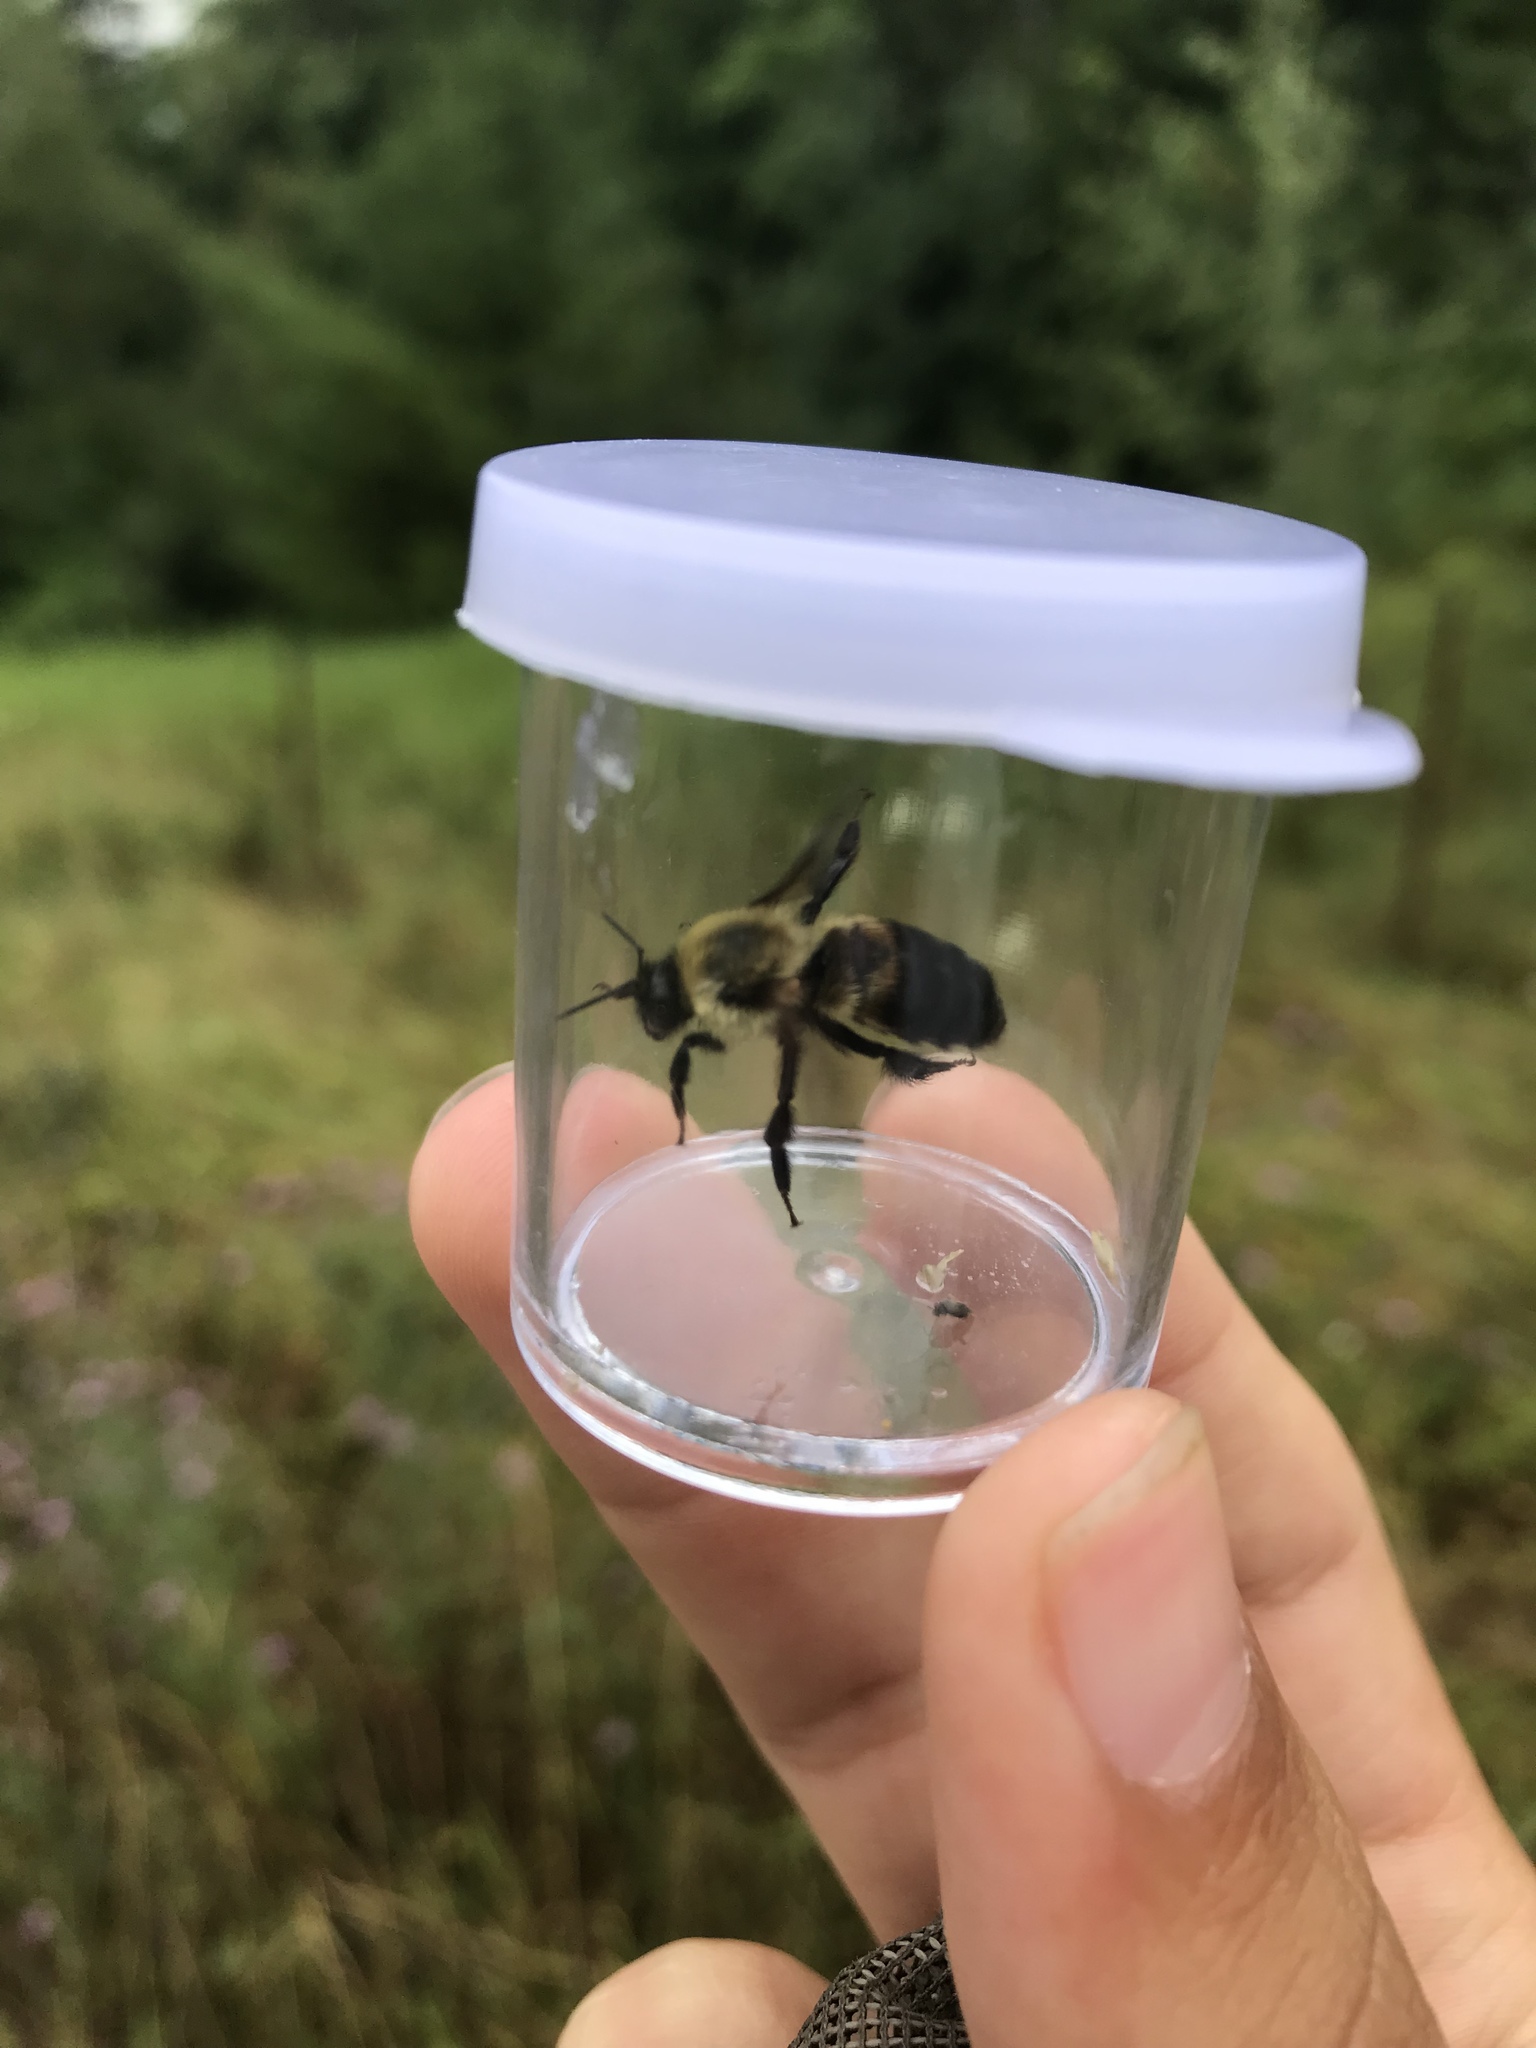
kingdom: Animalia
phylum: Arthropoda
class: Insecta
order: Hymenoptera
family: Apidae
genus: Bombus
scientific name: Bombus griseocollis
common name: Brown-belted bumble bee
